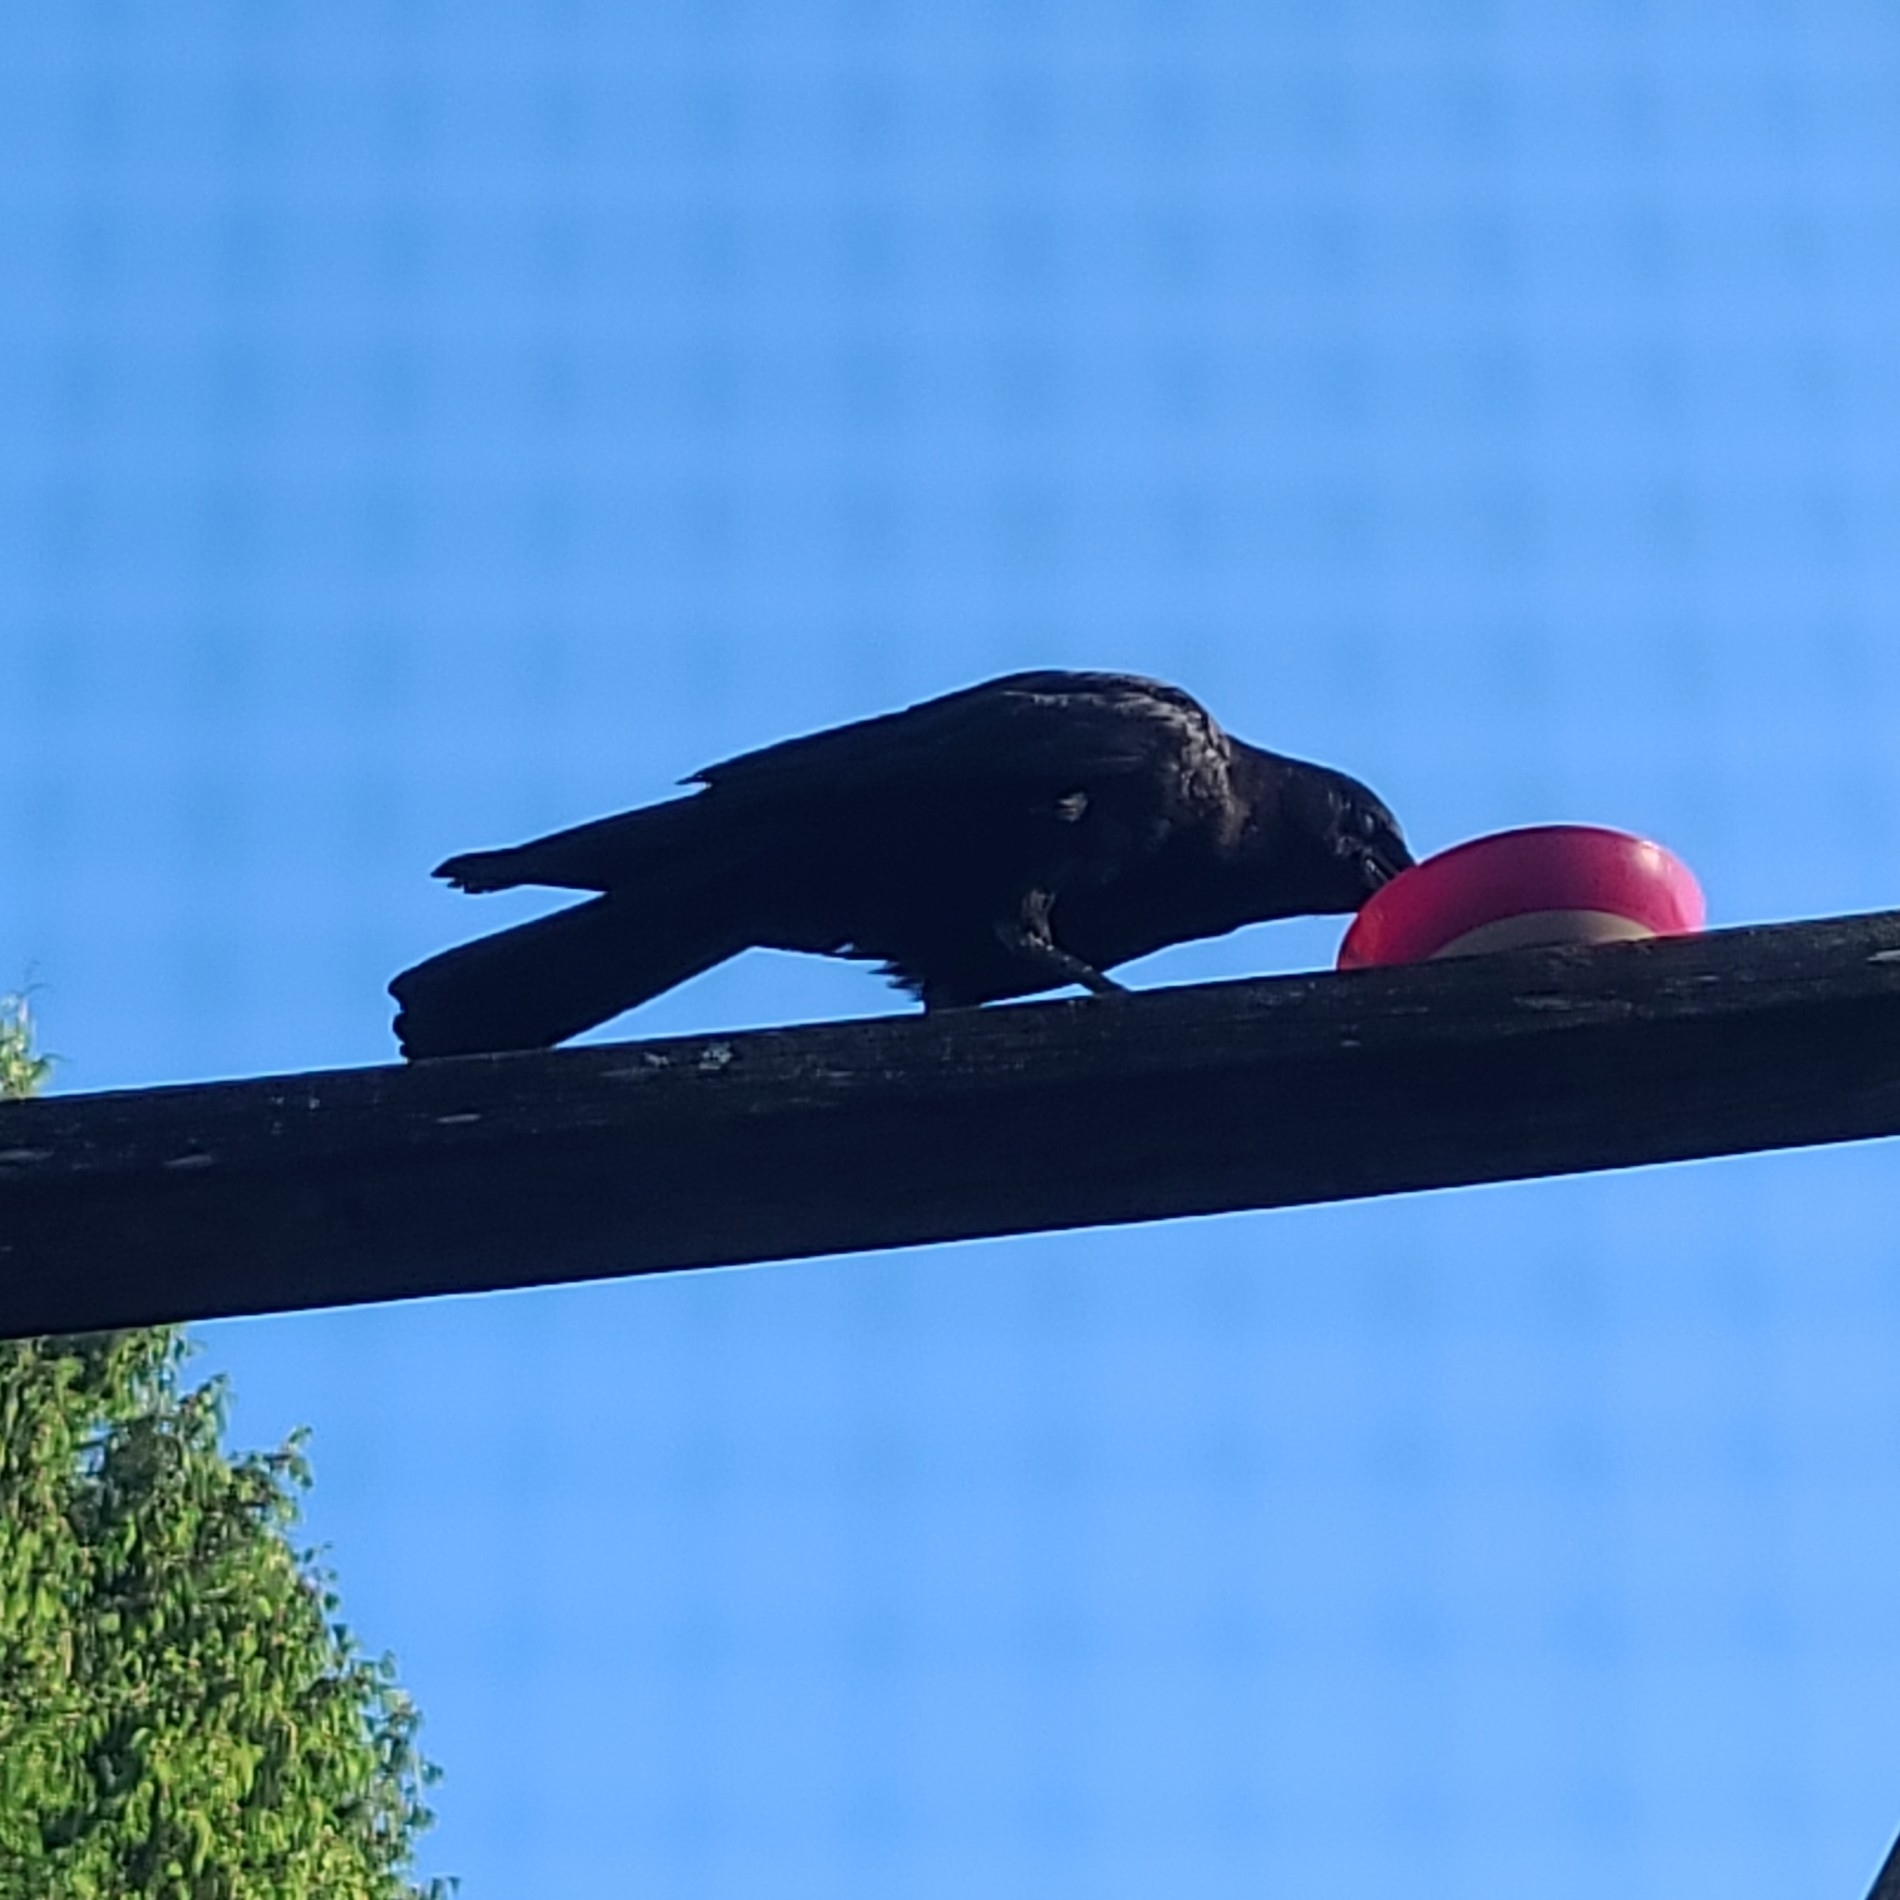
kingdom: Animalia
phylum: Chordata
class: Aves
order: Passeriformes
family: Corvidae
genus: Corvus
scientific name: Corvus brachyrhynchos
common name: American crow
